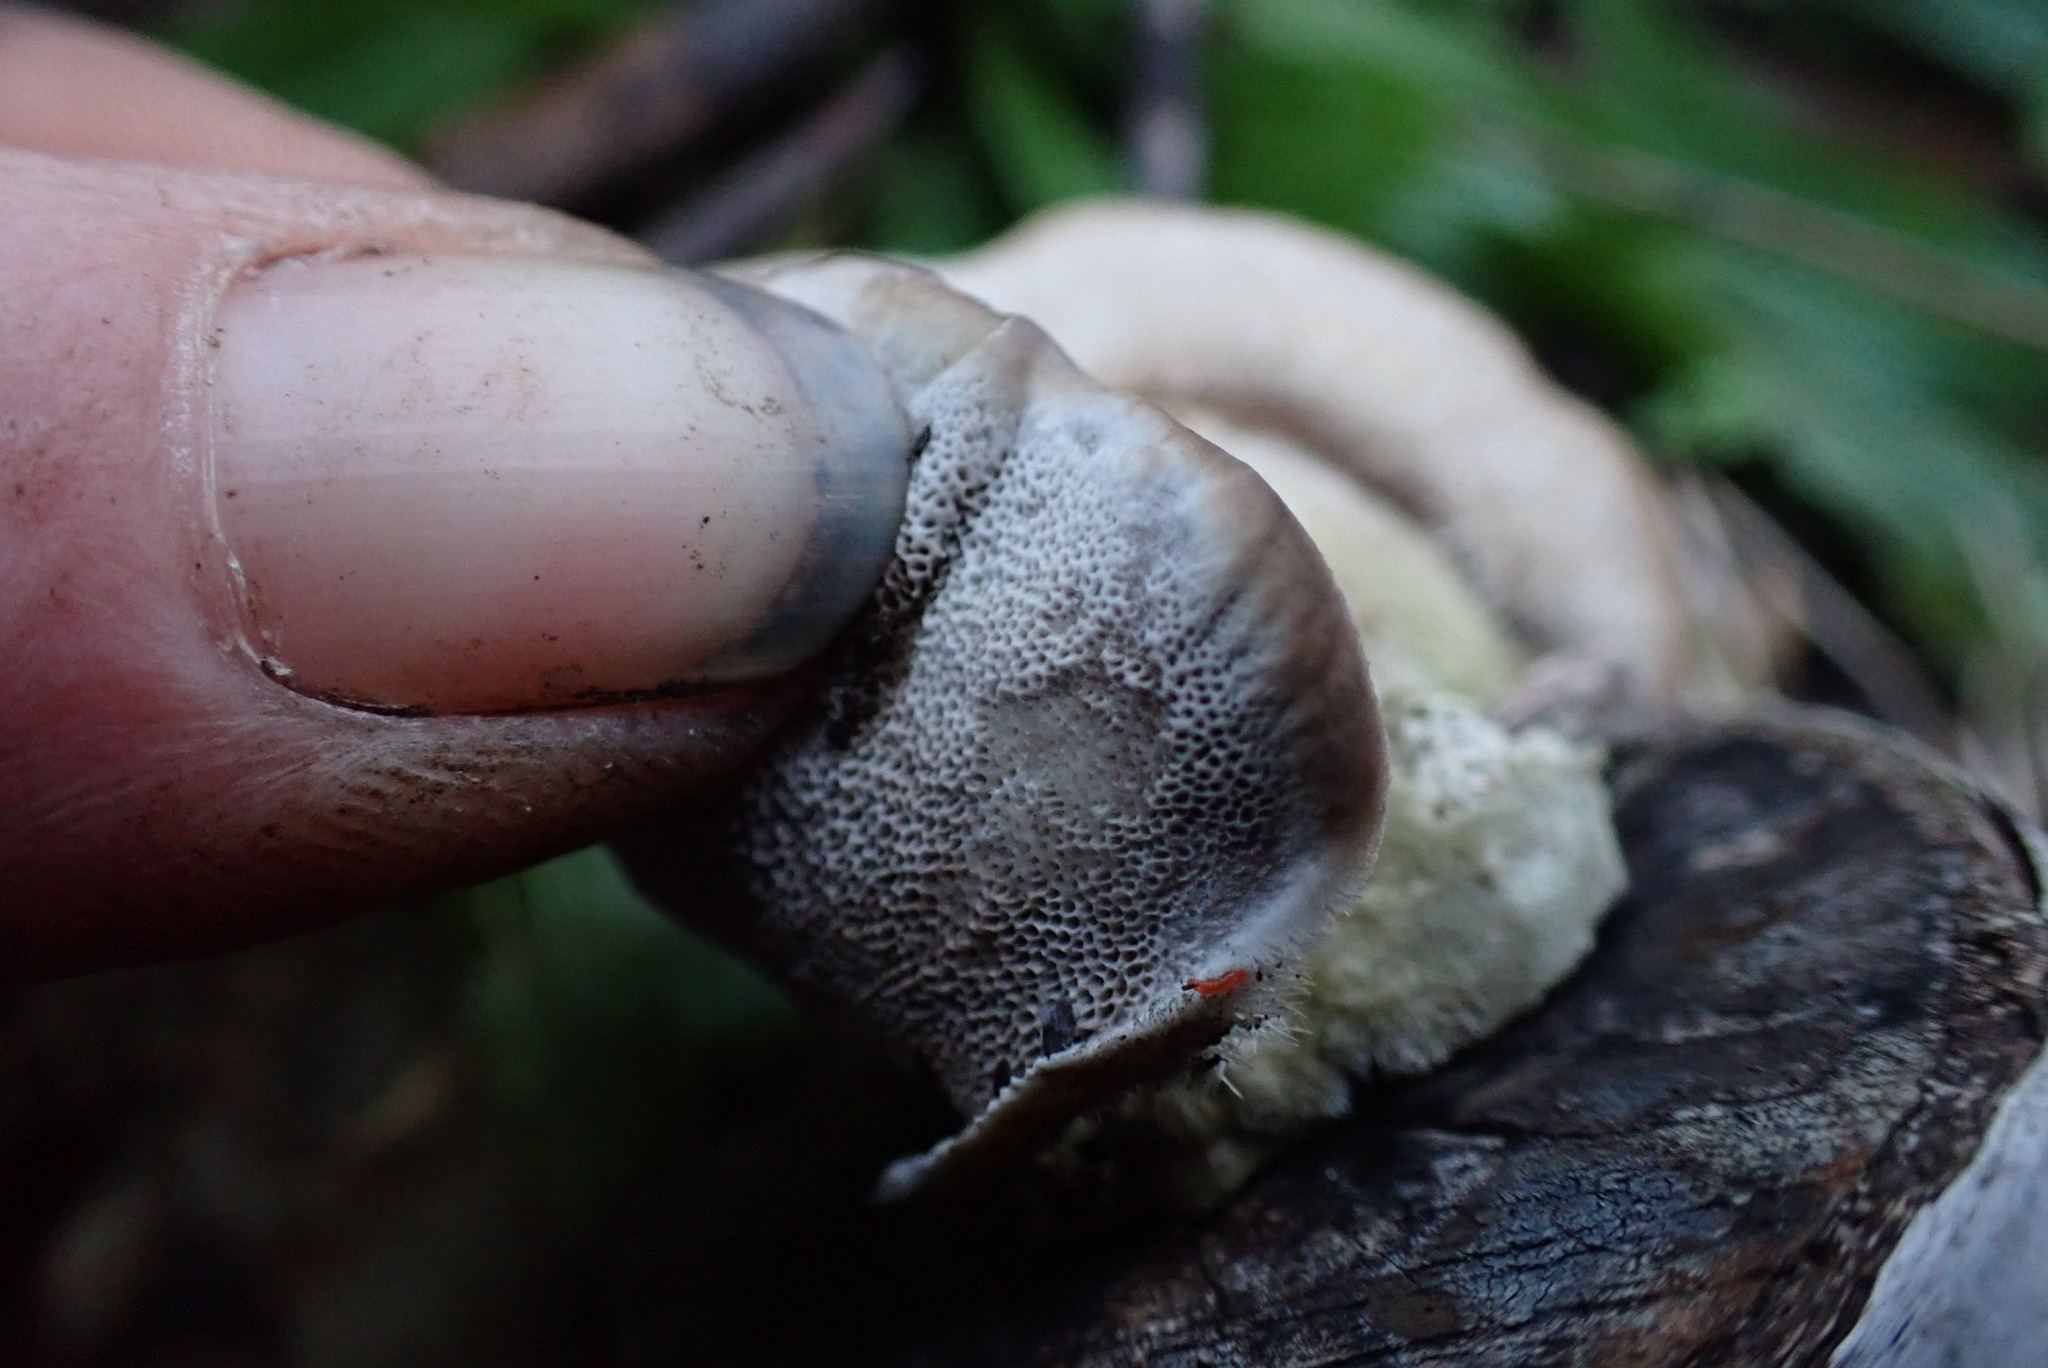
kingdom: Fungi
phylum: Basidiomycota
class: Agaricomycetes
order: Polyporales
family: Polyporaceae
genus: Trametes
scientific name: Trametes hirsuta
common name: Hairy bracket
